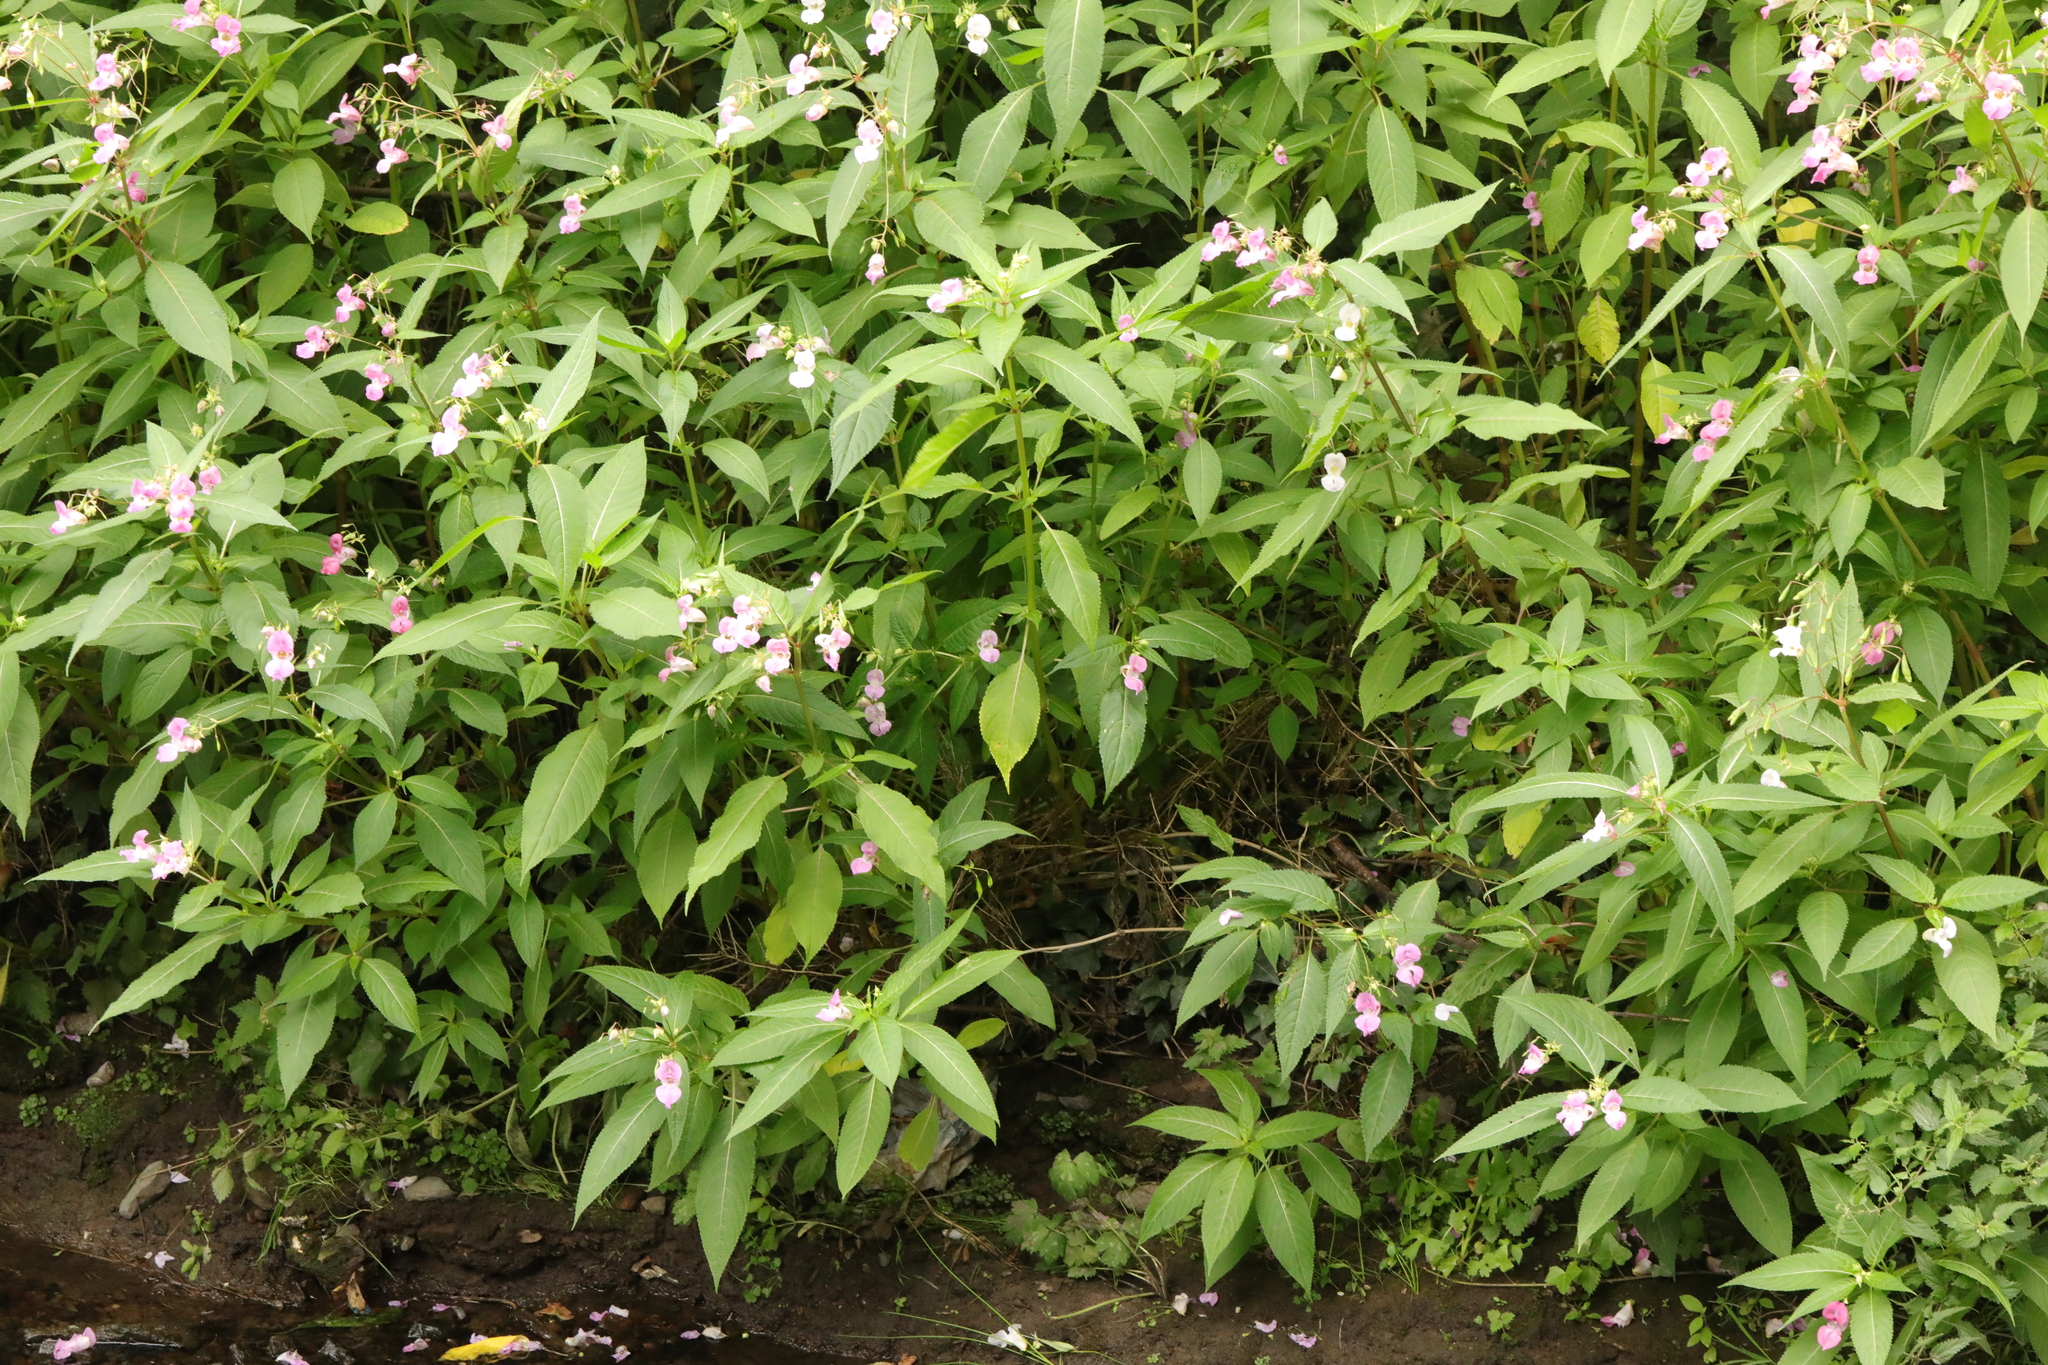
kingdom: Plantae
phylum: Tracheophyta
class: Magnoliopsida
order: Ericales
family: Balsaminaceae
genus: Impatiens
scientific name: Impatiens glandulifera
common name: Himalayan balsam
